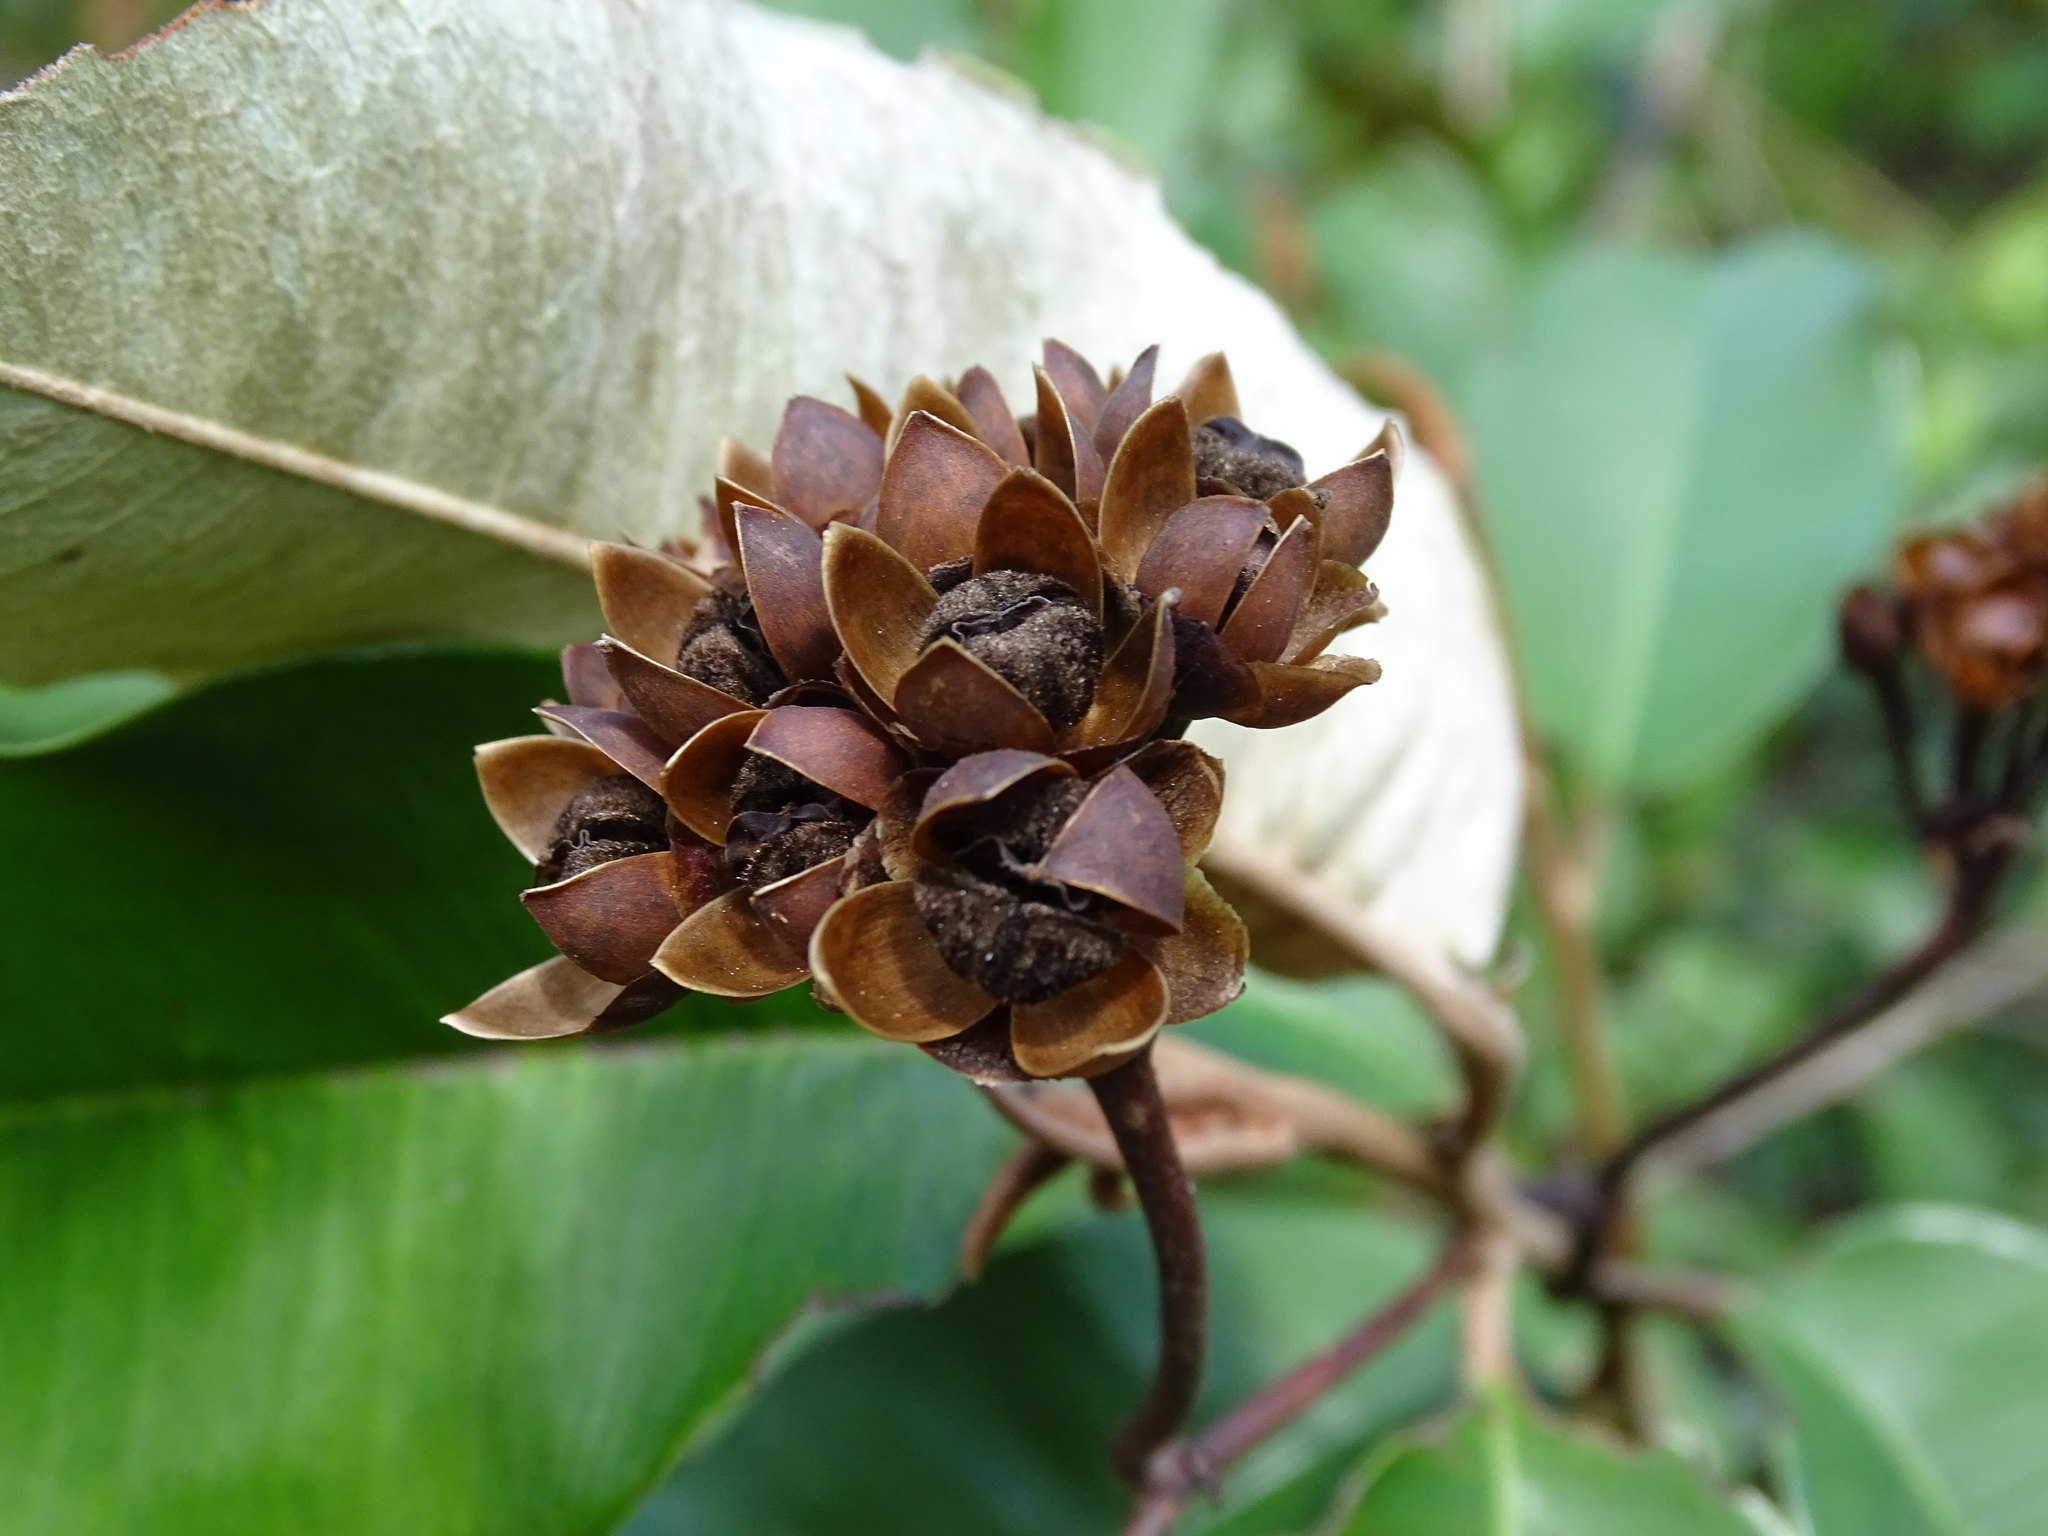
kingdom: Plantae
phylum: Tracheophyta
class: Magnoliopsida
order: Solanales
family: Convolvulaceae
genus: Camonea
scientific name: Camonea umbellata
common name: Hogvine
